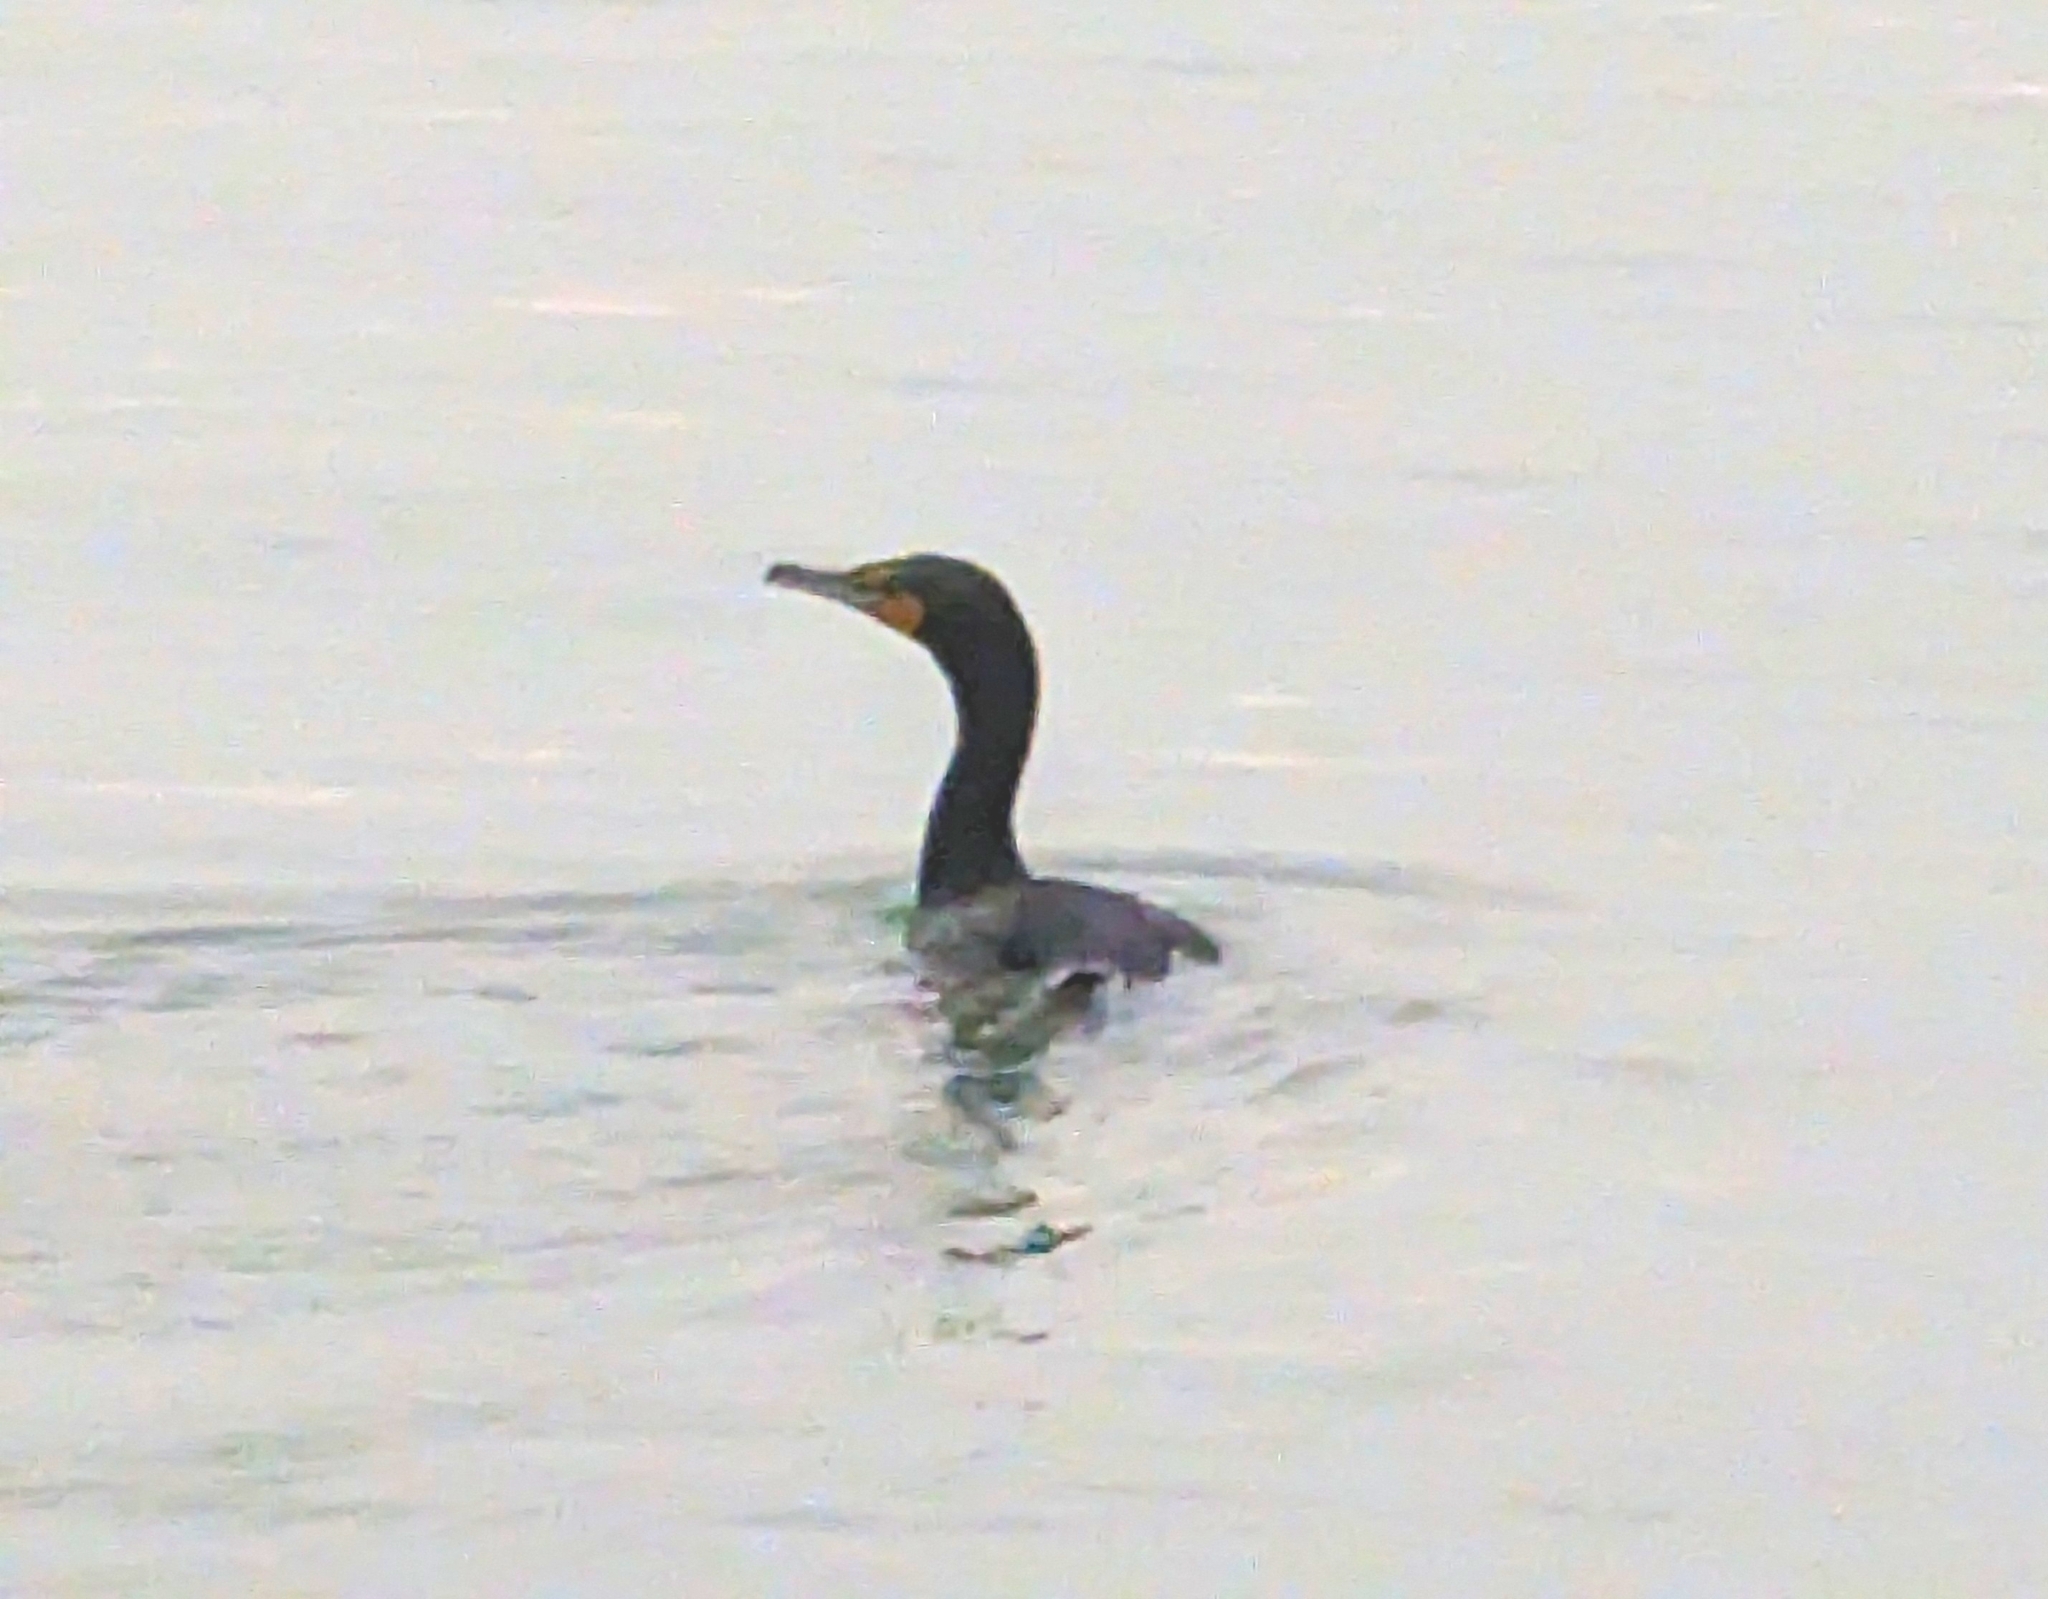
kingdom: Animalia
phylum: Chordata
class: Aves
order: Suliformes
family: Phalacrocoracidae
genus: Phalacrocorax
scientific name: Phalacrocorax auritus
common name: Double-crested cormorant
